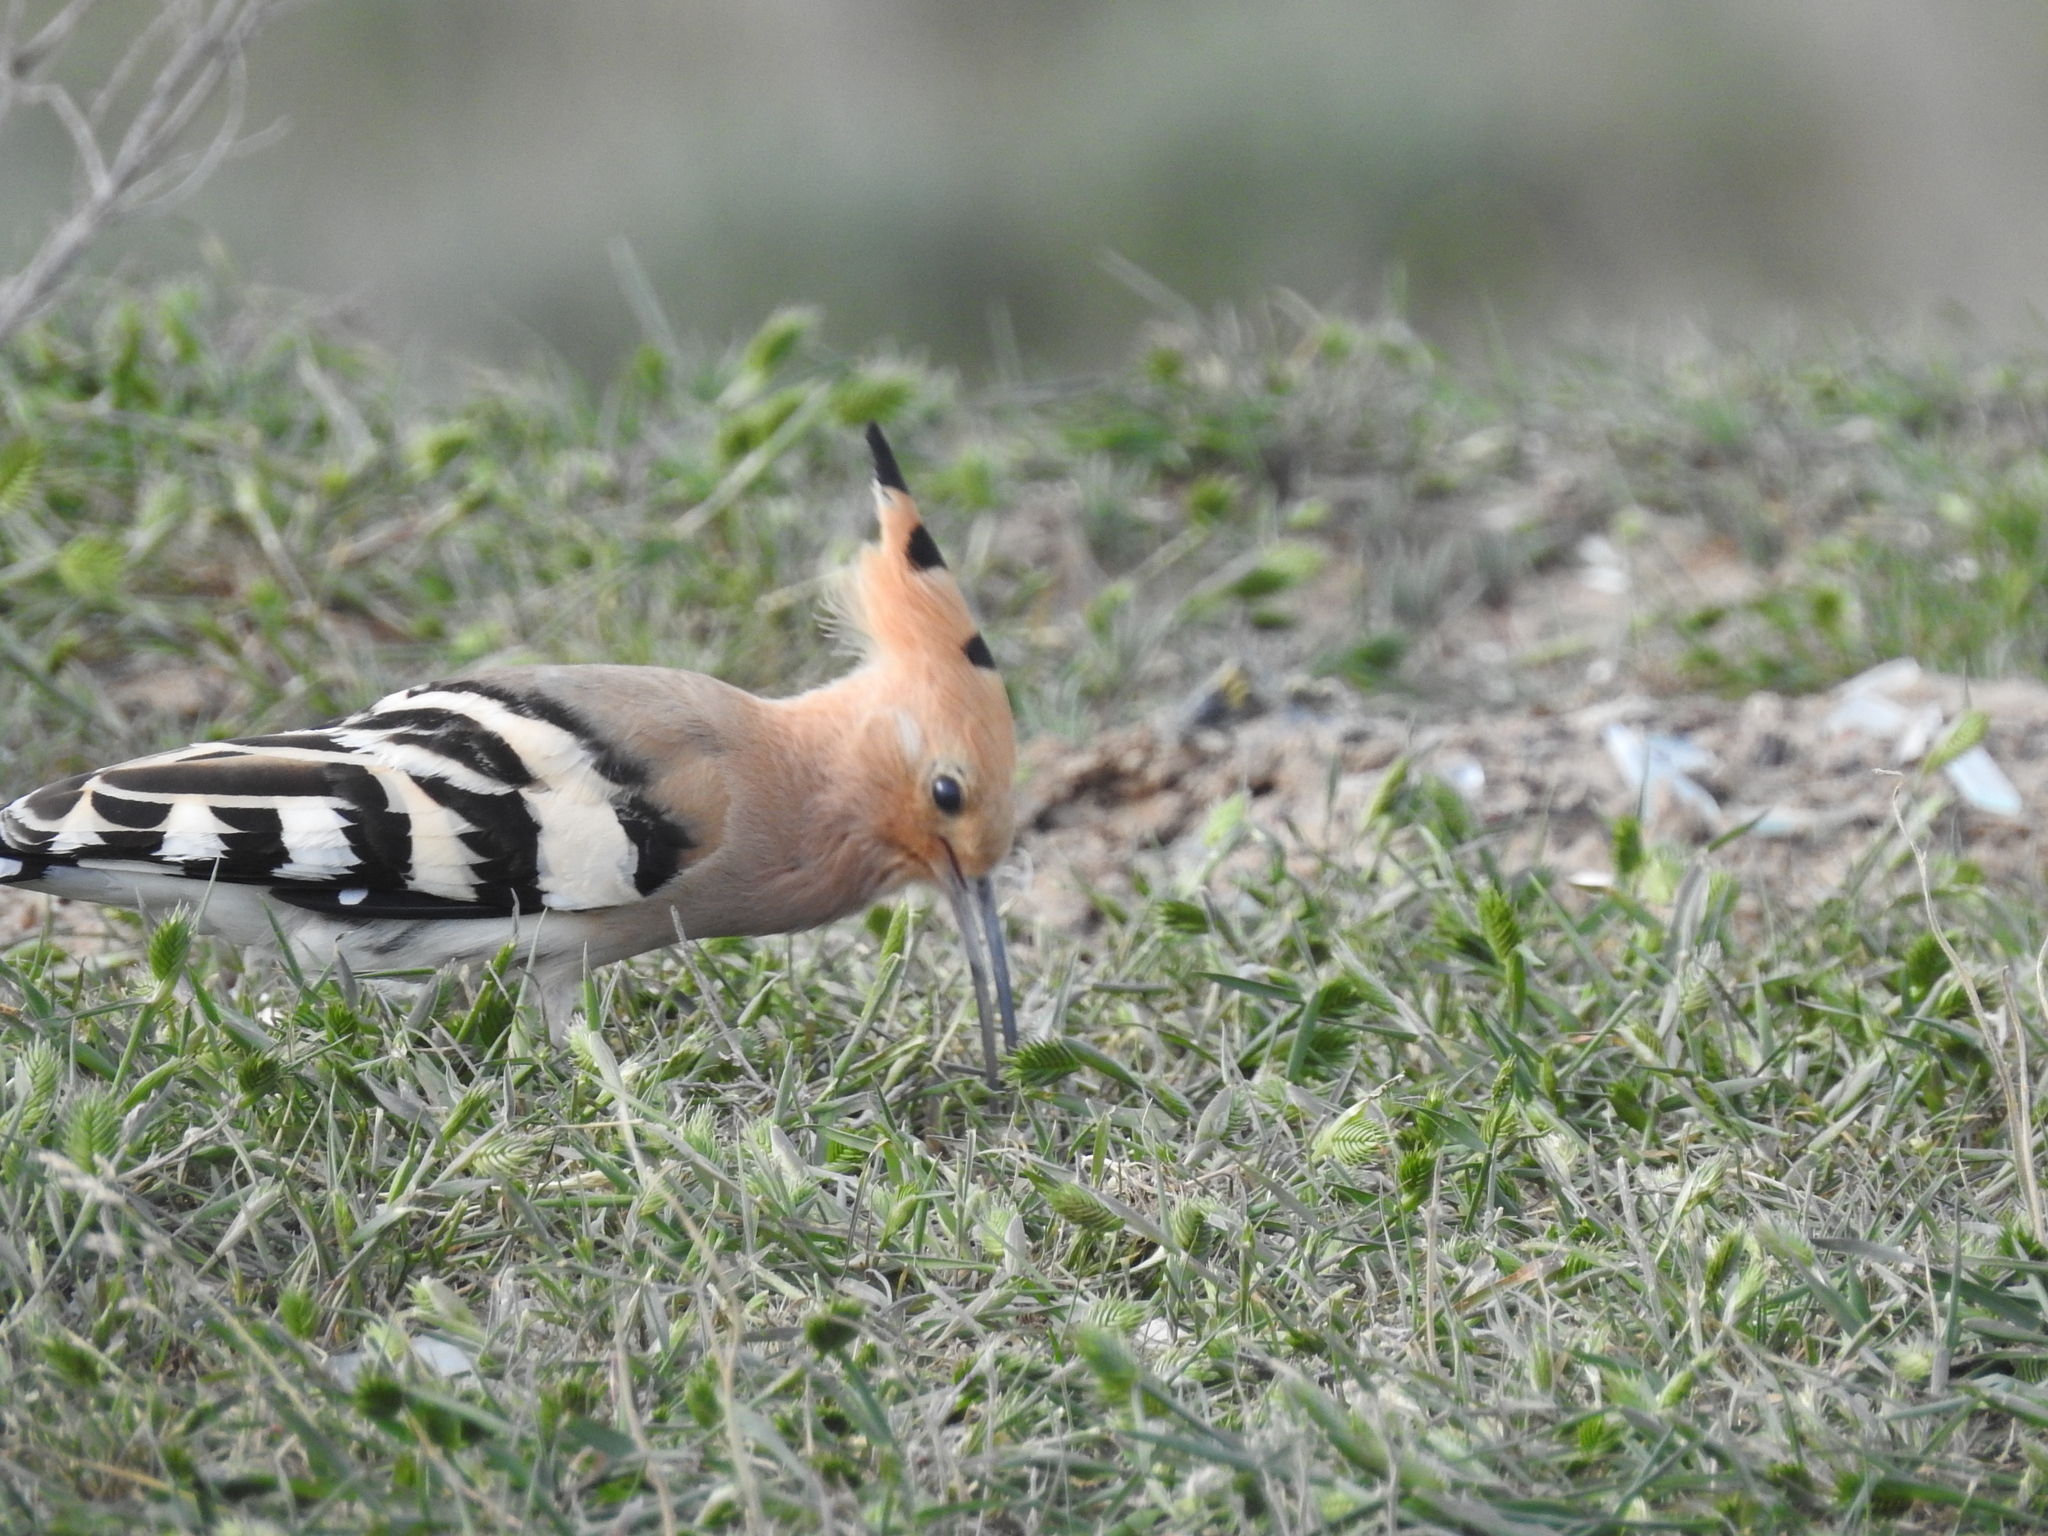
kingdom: Animalia
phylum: Chordata
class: Aves
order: Bucerotiformes
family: Upupidae
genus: Upupa
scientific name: Upupa epops
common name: Eurasian hoopoe
